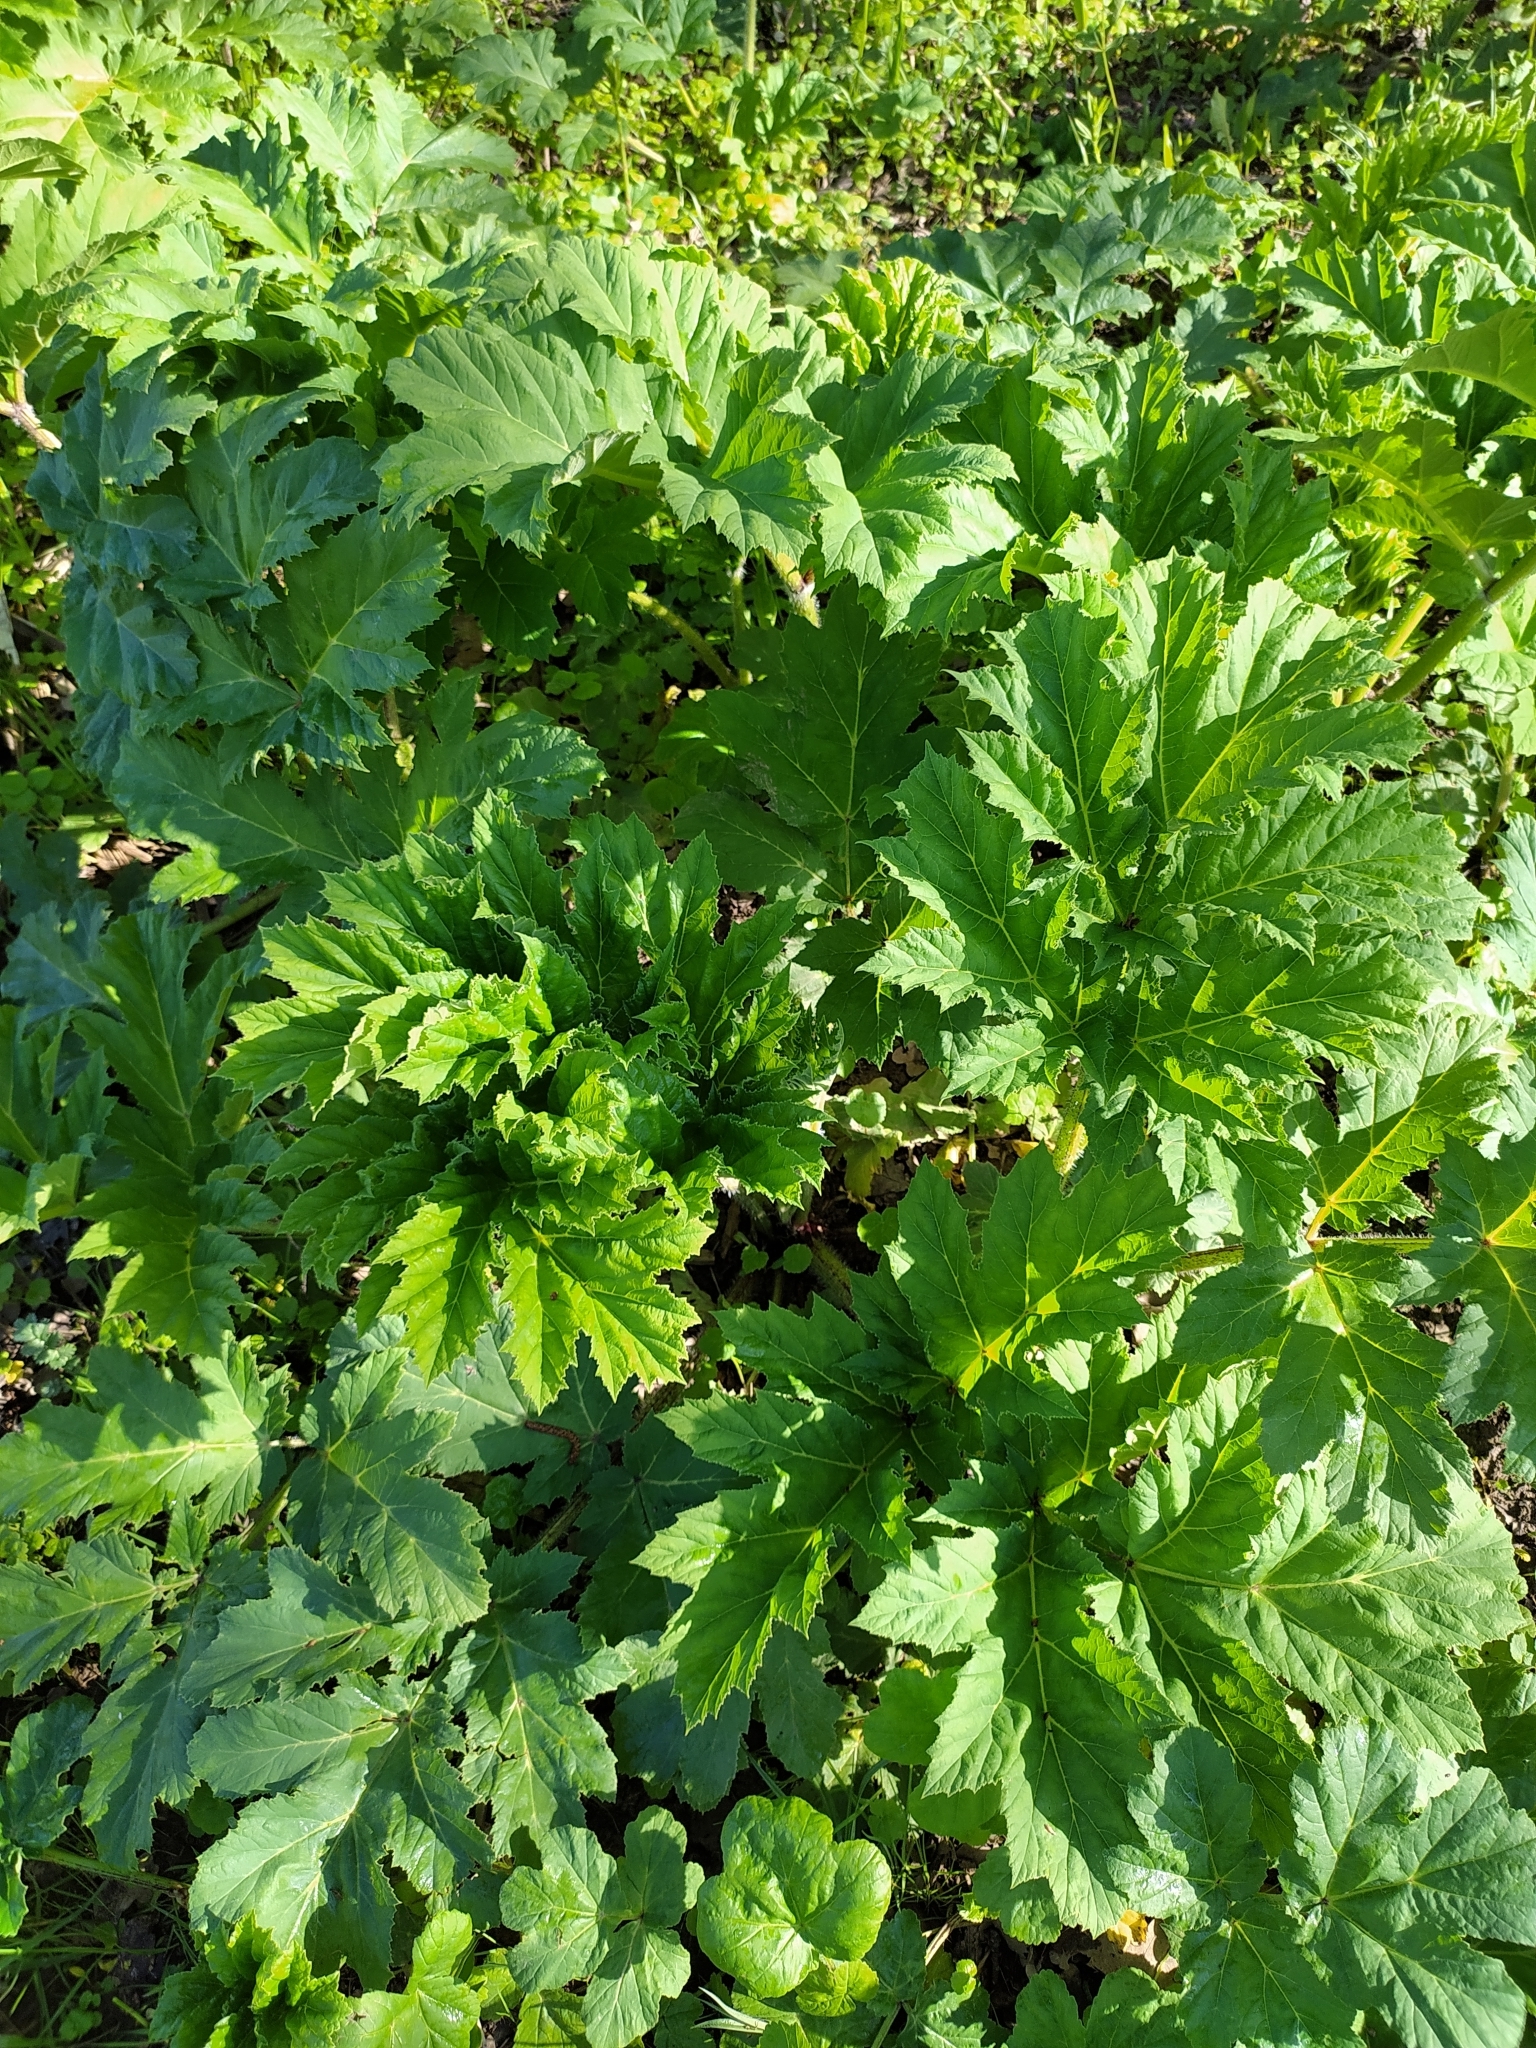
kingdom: Plantae
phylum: Tracheophyta
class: Magnoliopsida
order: Apiales
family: Apiaceae
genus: Heracleum
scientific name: Heracleum sosnowskyi
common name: Sosnowsky's hogweed
